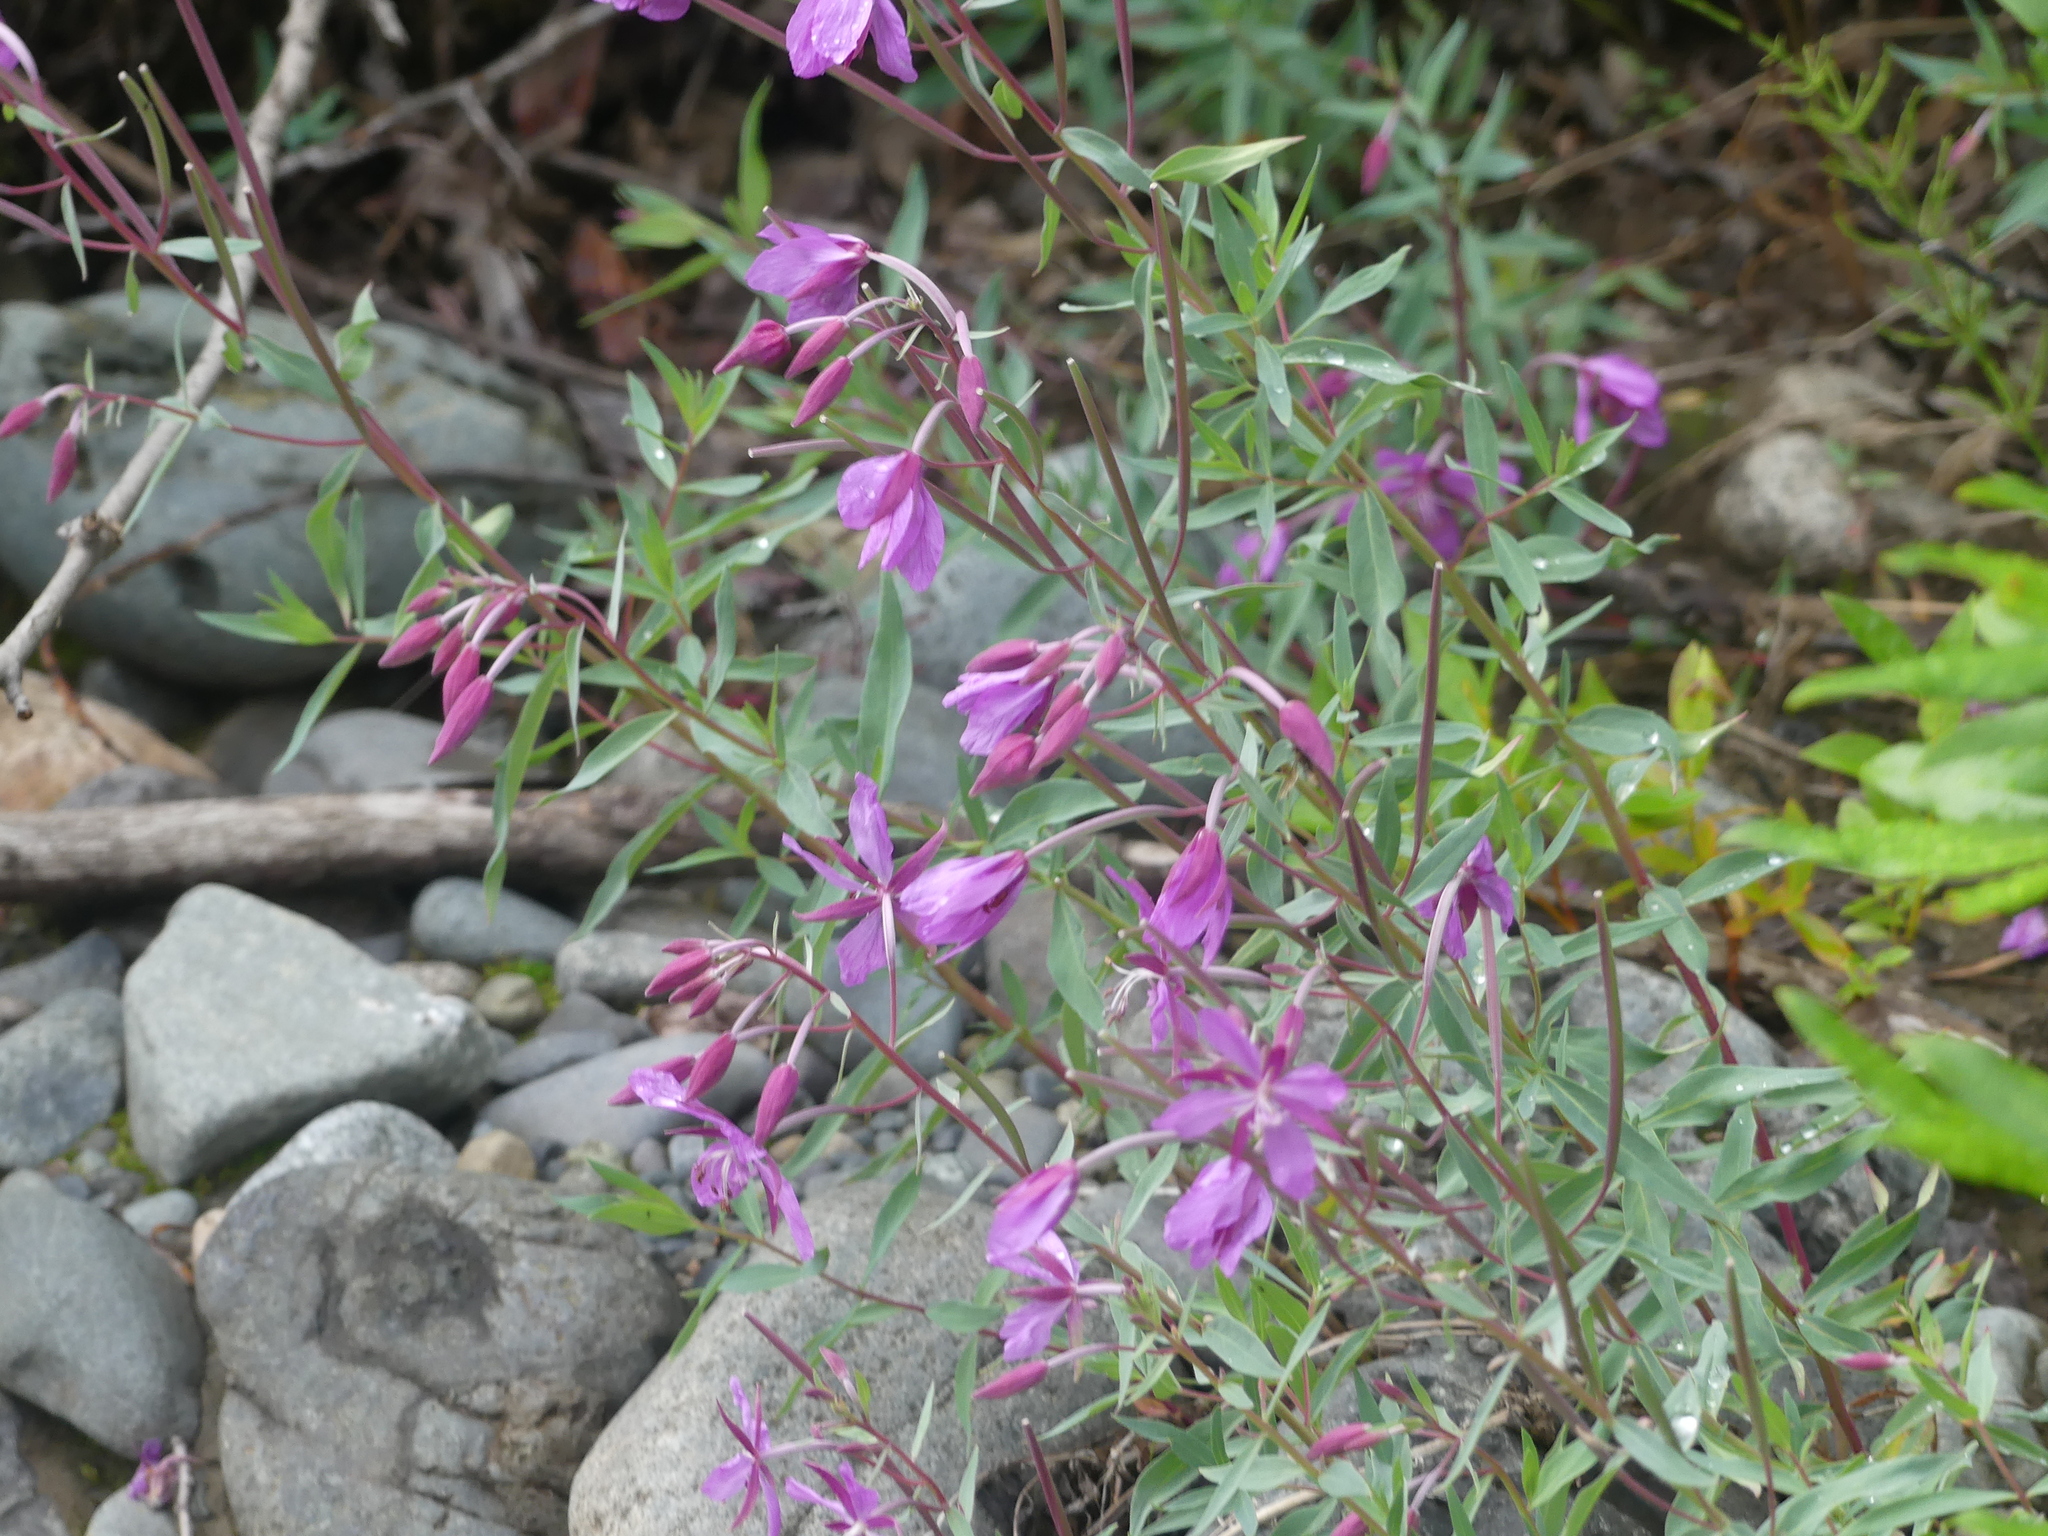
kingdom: Plantae
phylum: Tracheophyta
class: Magnoliopsida
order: Myrtales
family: Onagraceae
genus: Chamaenerion
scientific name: Chamaenerion latifolium
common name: Dwarf fireweed
